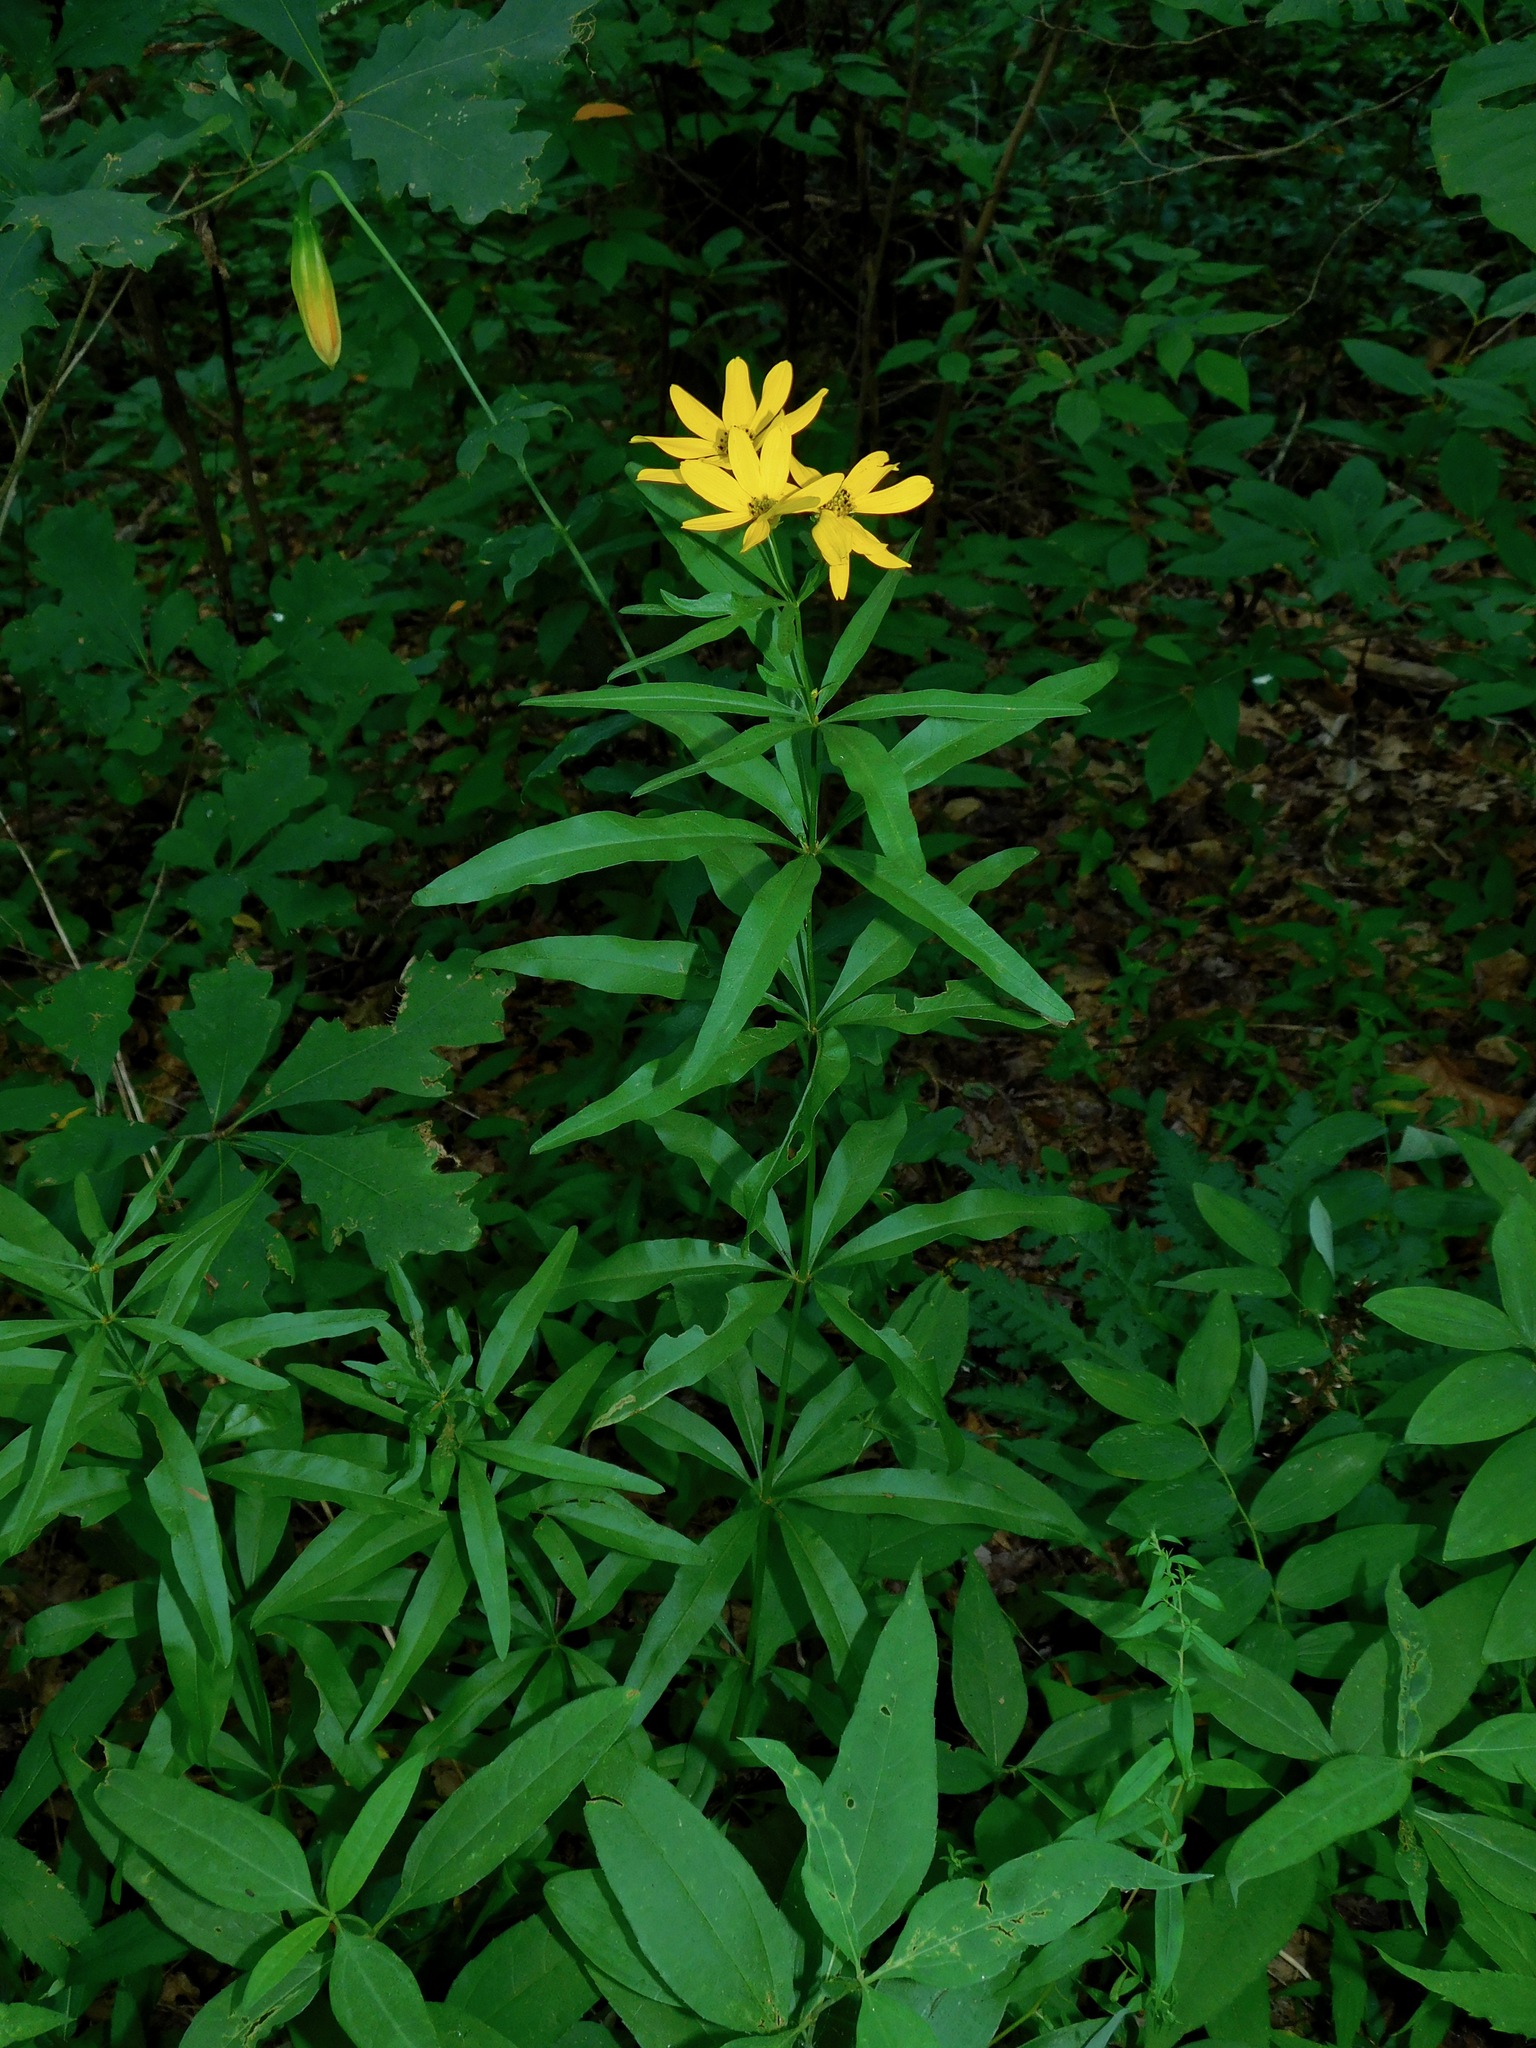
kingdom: Plantae
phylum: Tracheophyta
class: Magnoliopsida
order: Asterales
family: Asteraceae
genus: Coreopsis
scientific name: Coreopsis major
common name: Forest tickseed
